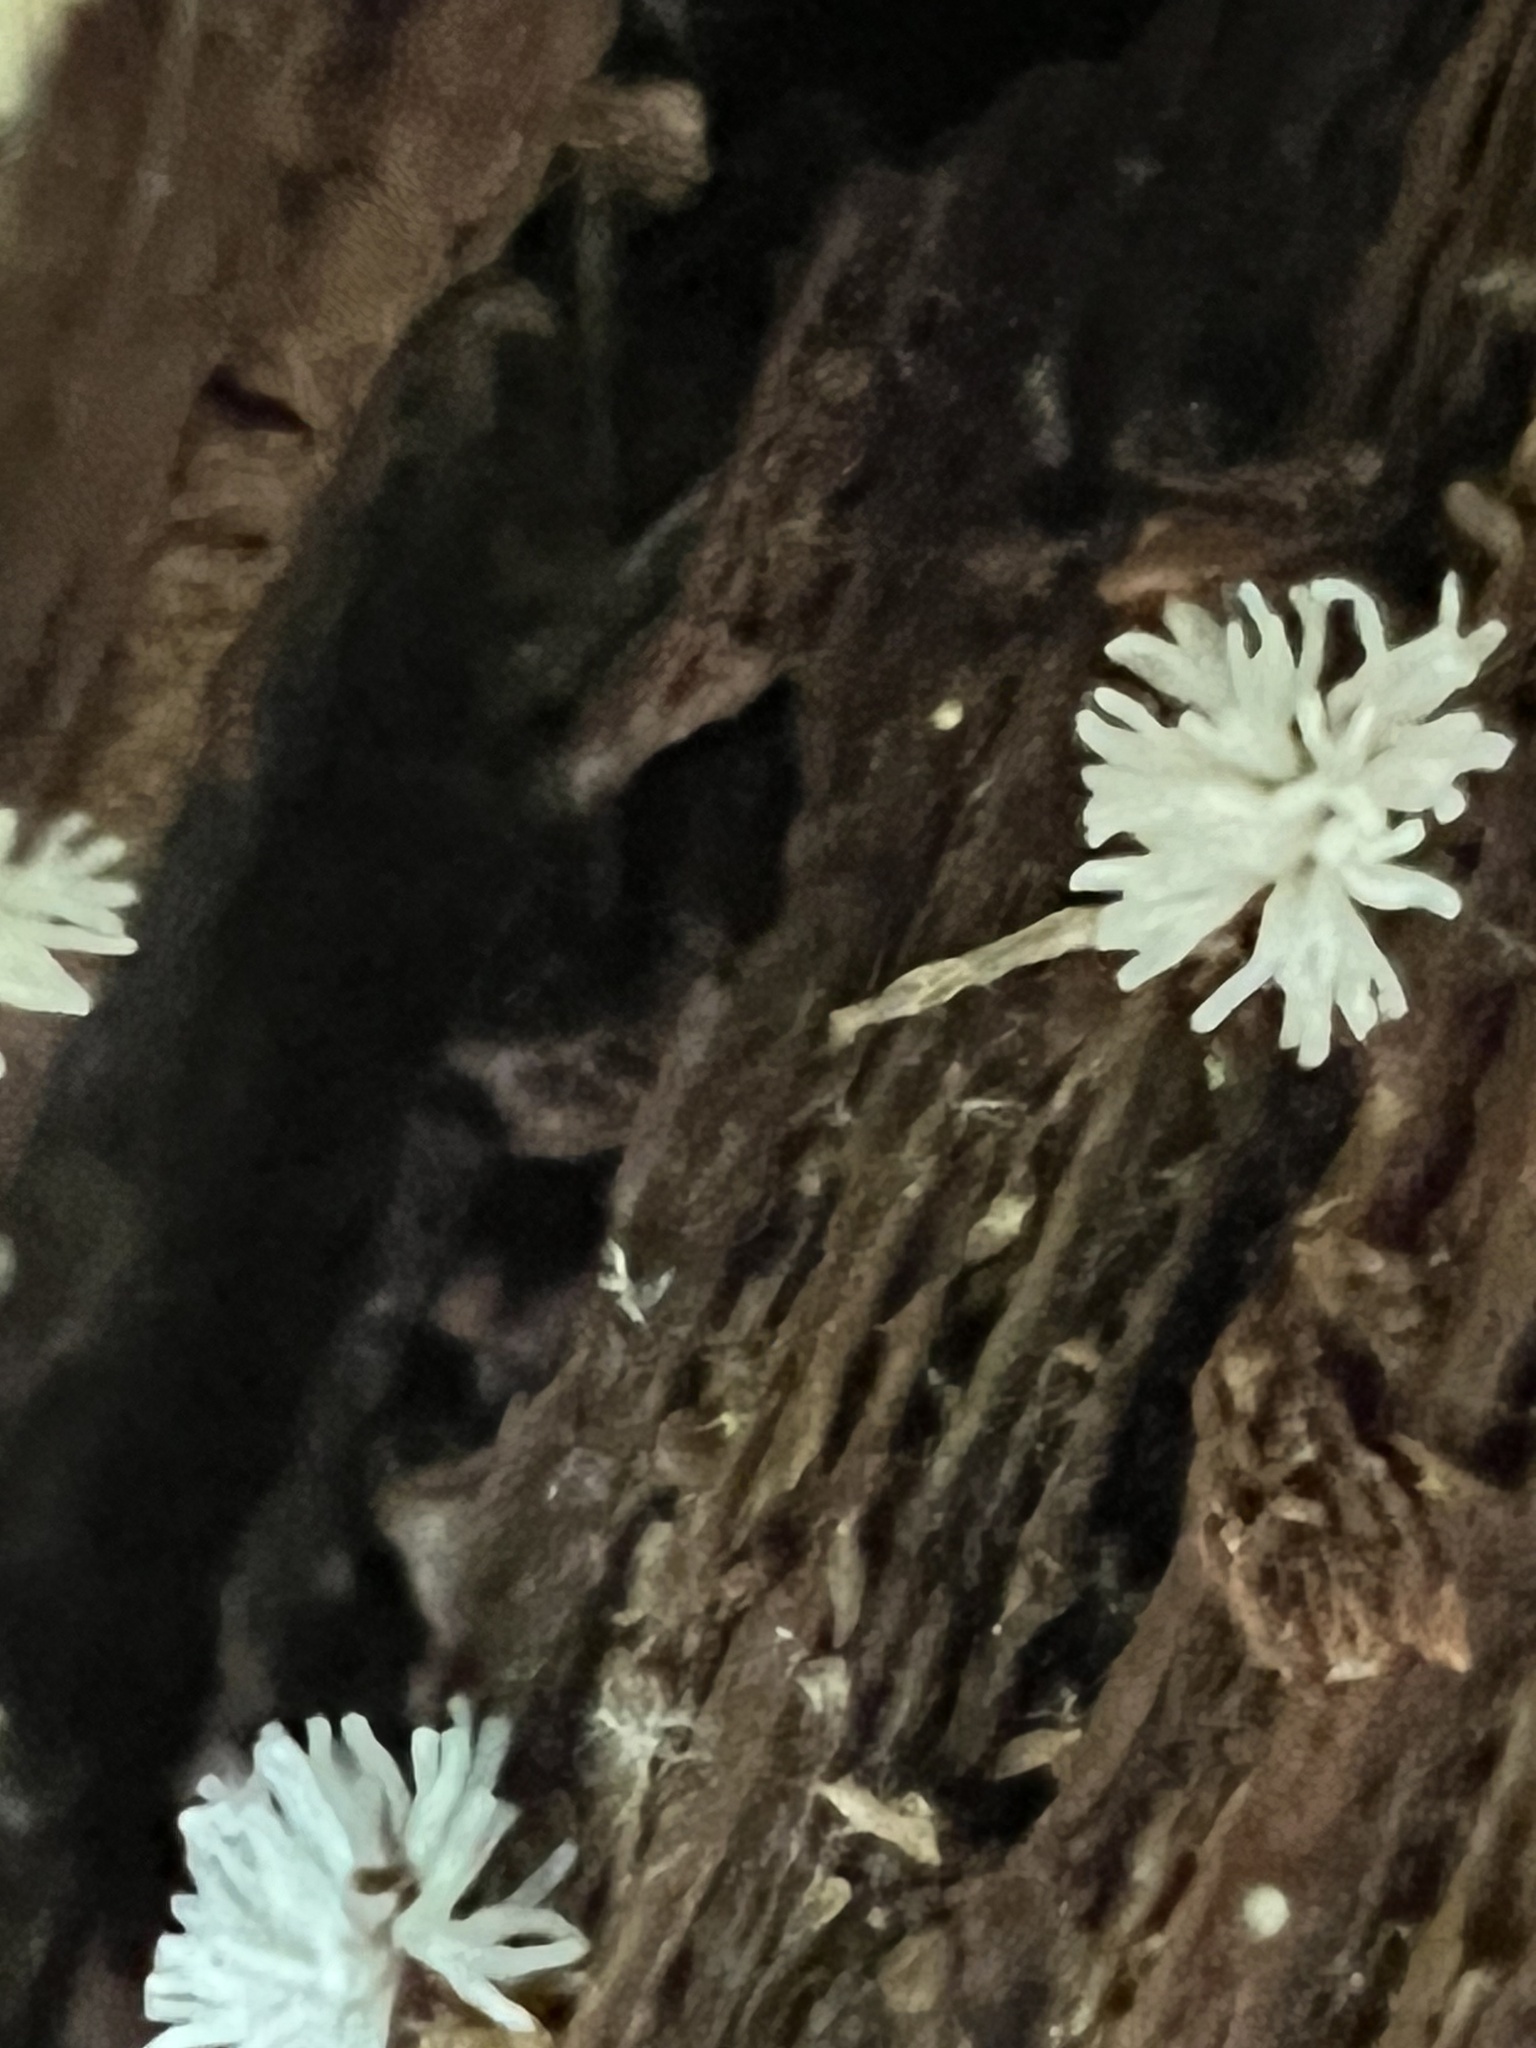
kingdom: Protozoa
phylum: Mycetozoa
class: Protosteliomycetes
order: Ceratiomyxales
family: Ceratiomyxaceae
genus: Ceratiomyxa
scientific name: Ceratiomyxa fruticulosa
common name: Honeycomb coral slime mold
